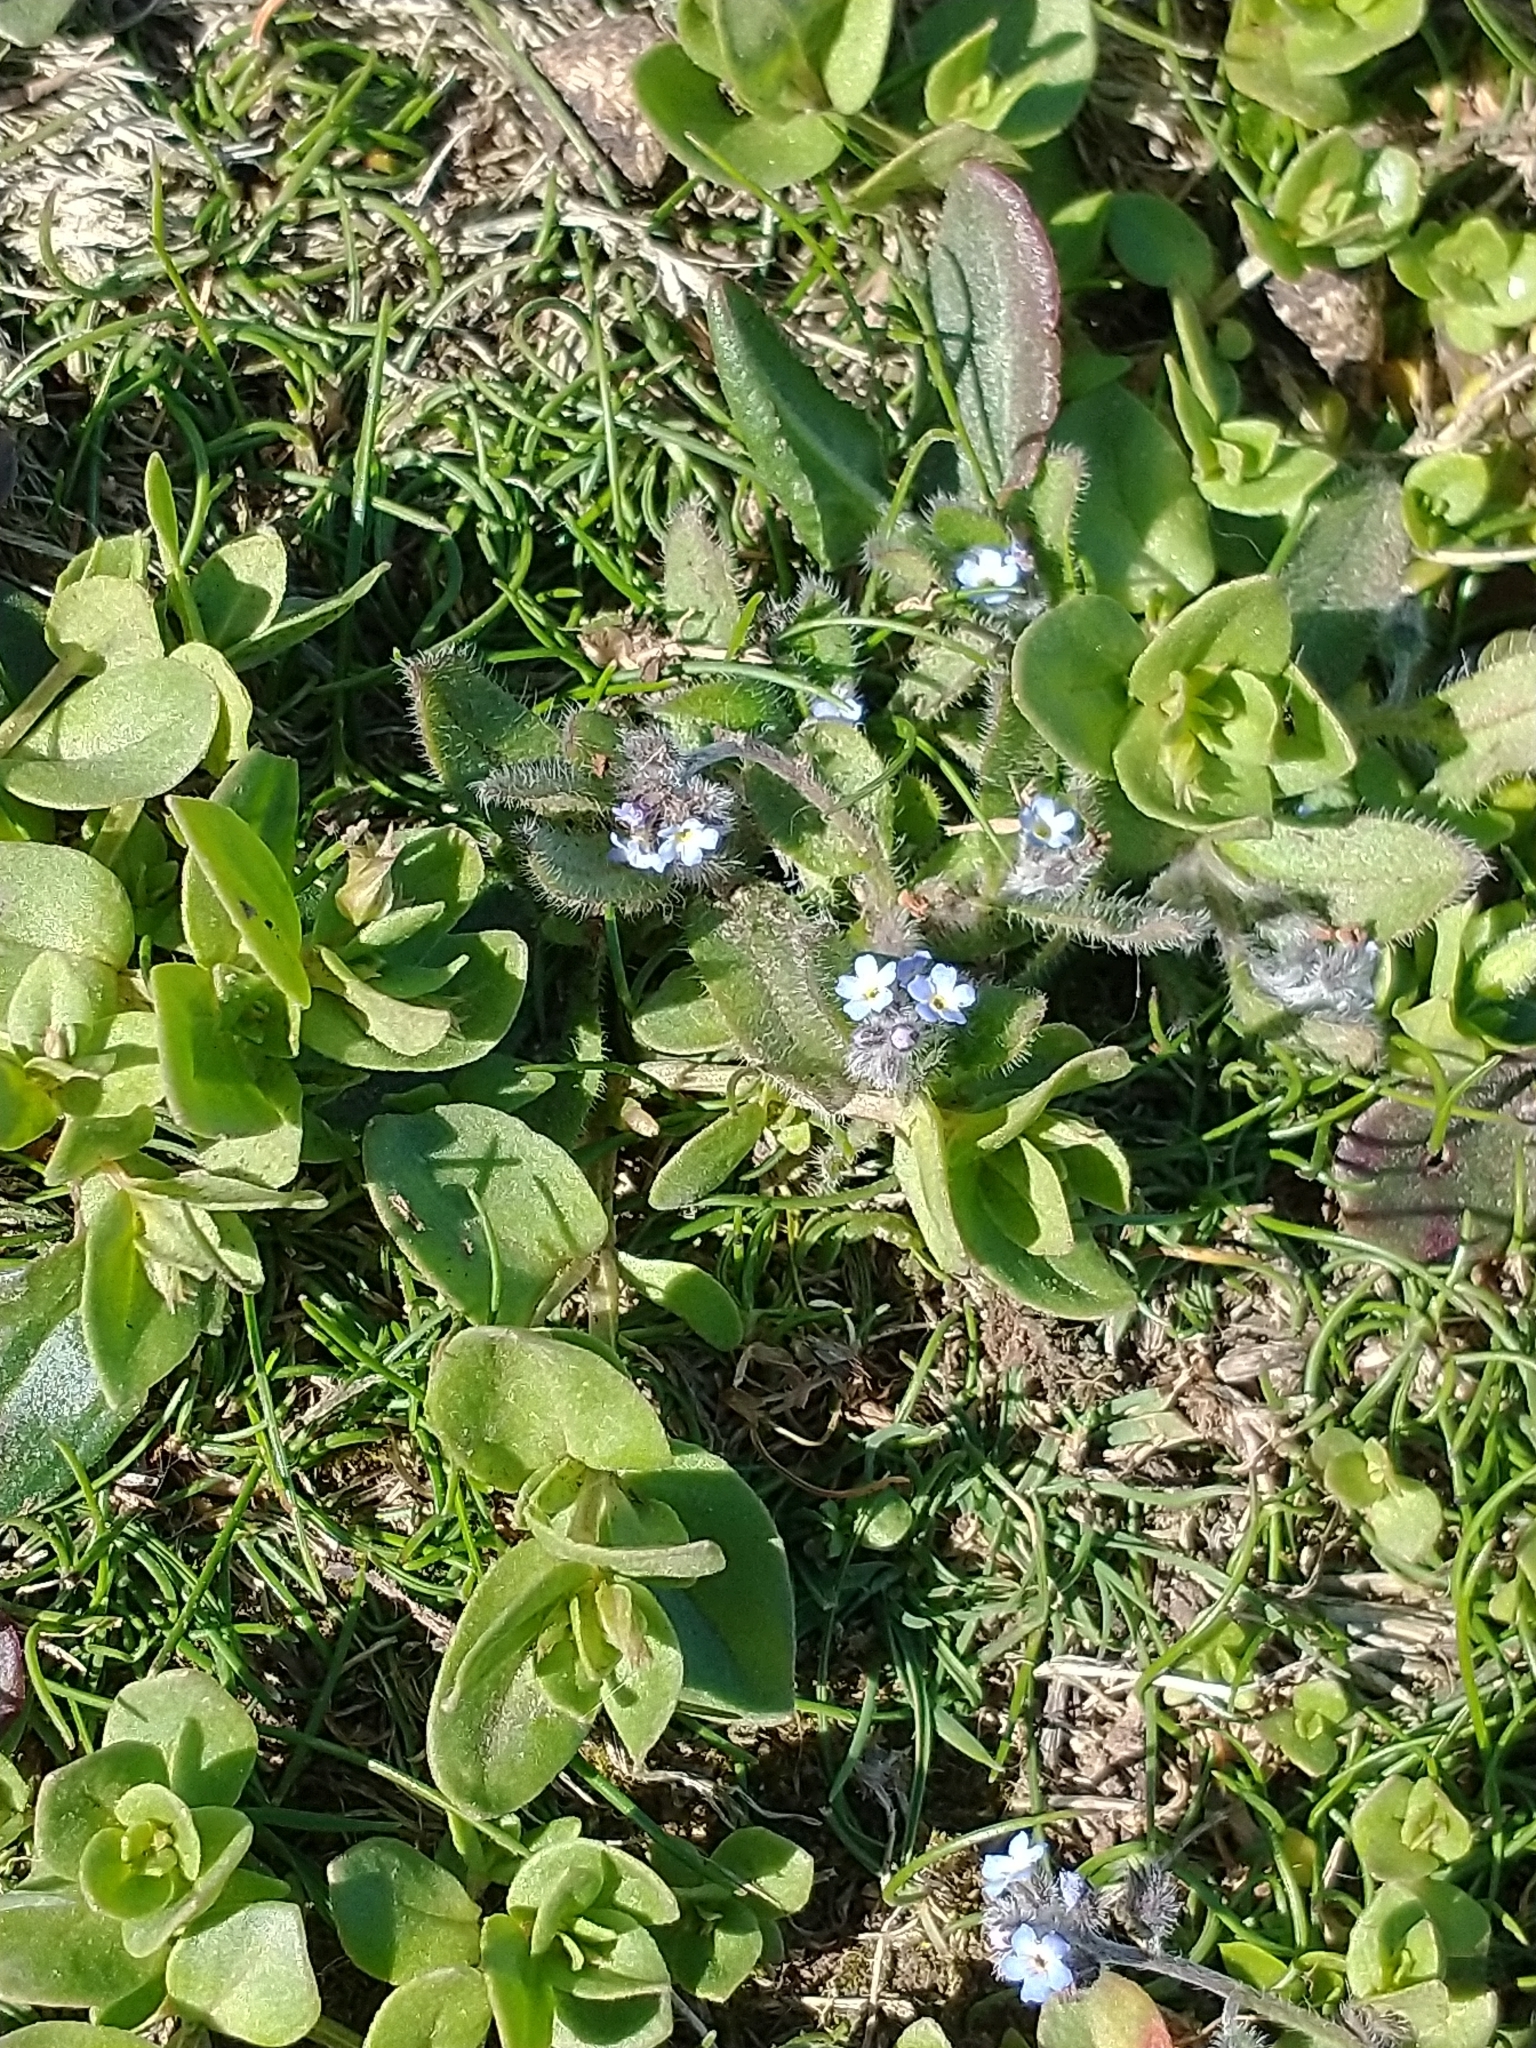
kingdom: Plantae
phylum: Tracheophyta
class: Magnoliopsida
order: Boraginales
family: Boraginaceae
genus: Myosotis
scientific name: Myosotis ramosissima
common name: Early forget-me-not
